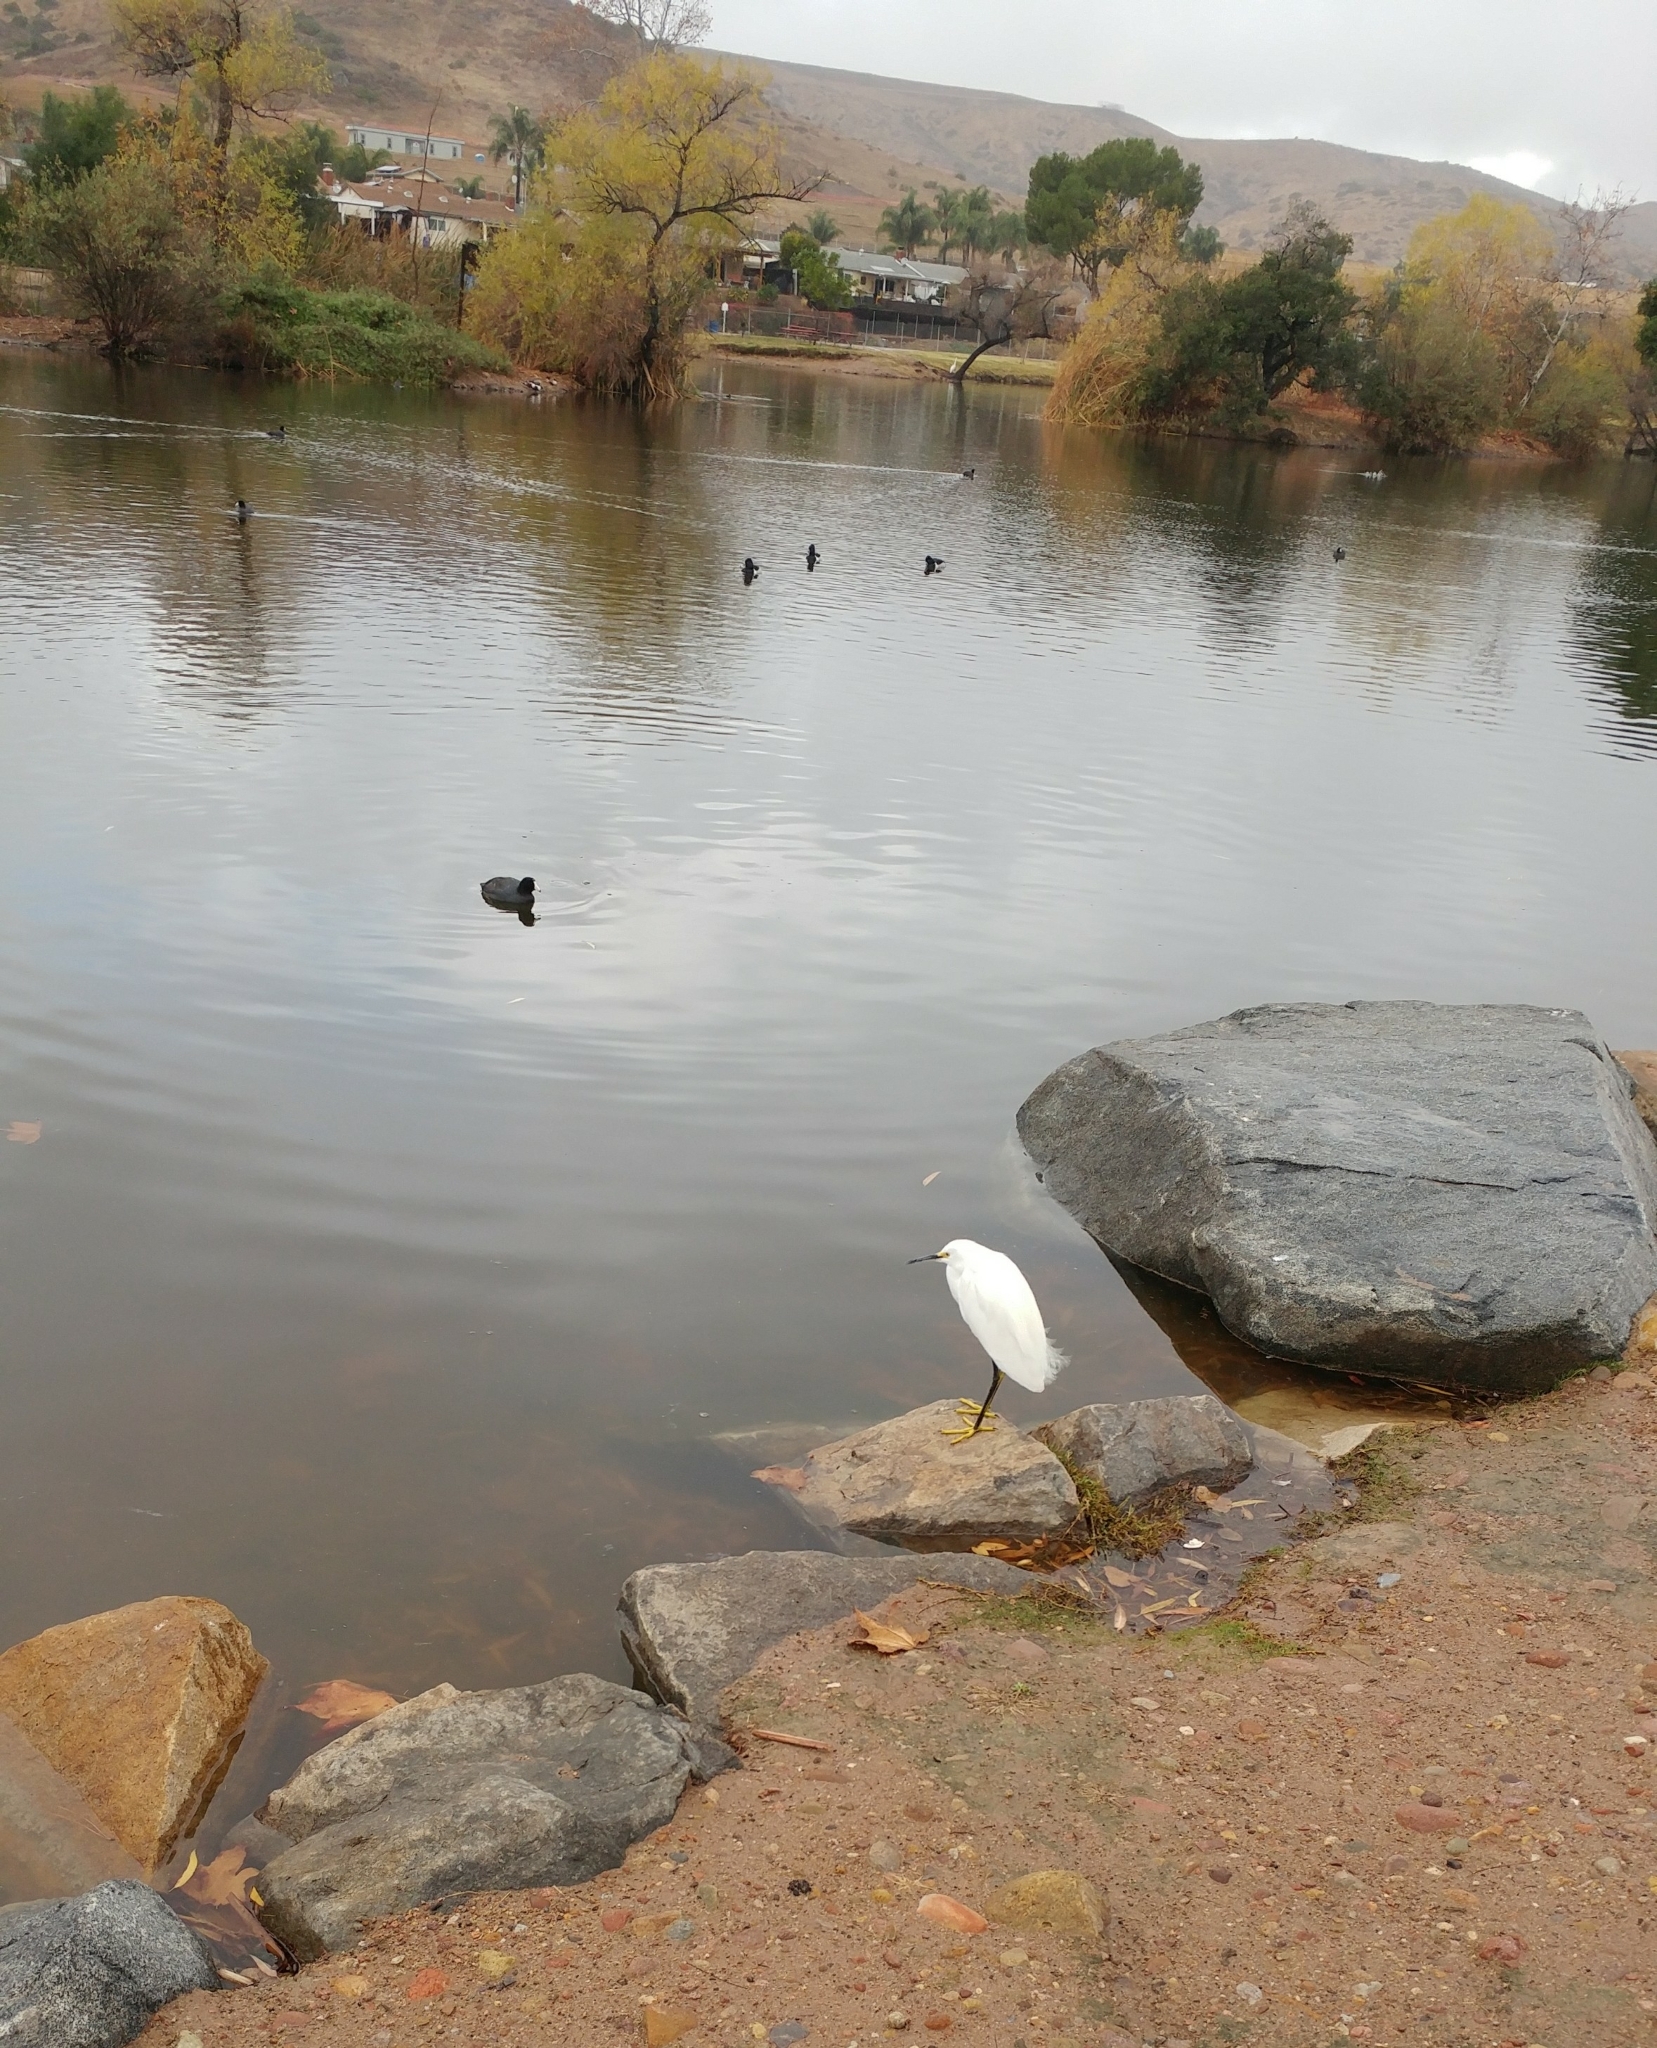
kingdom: Animalia
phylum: Chordata
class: Aves
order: Pelecaniformes
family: Ardeidae
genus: Egretta
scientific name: Egretta thula
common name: Snowy egret
